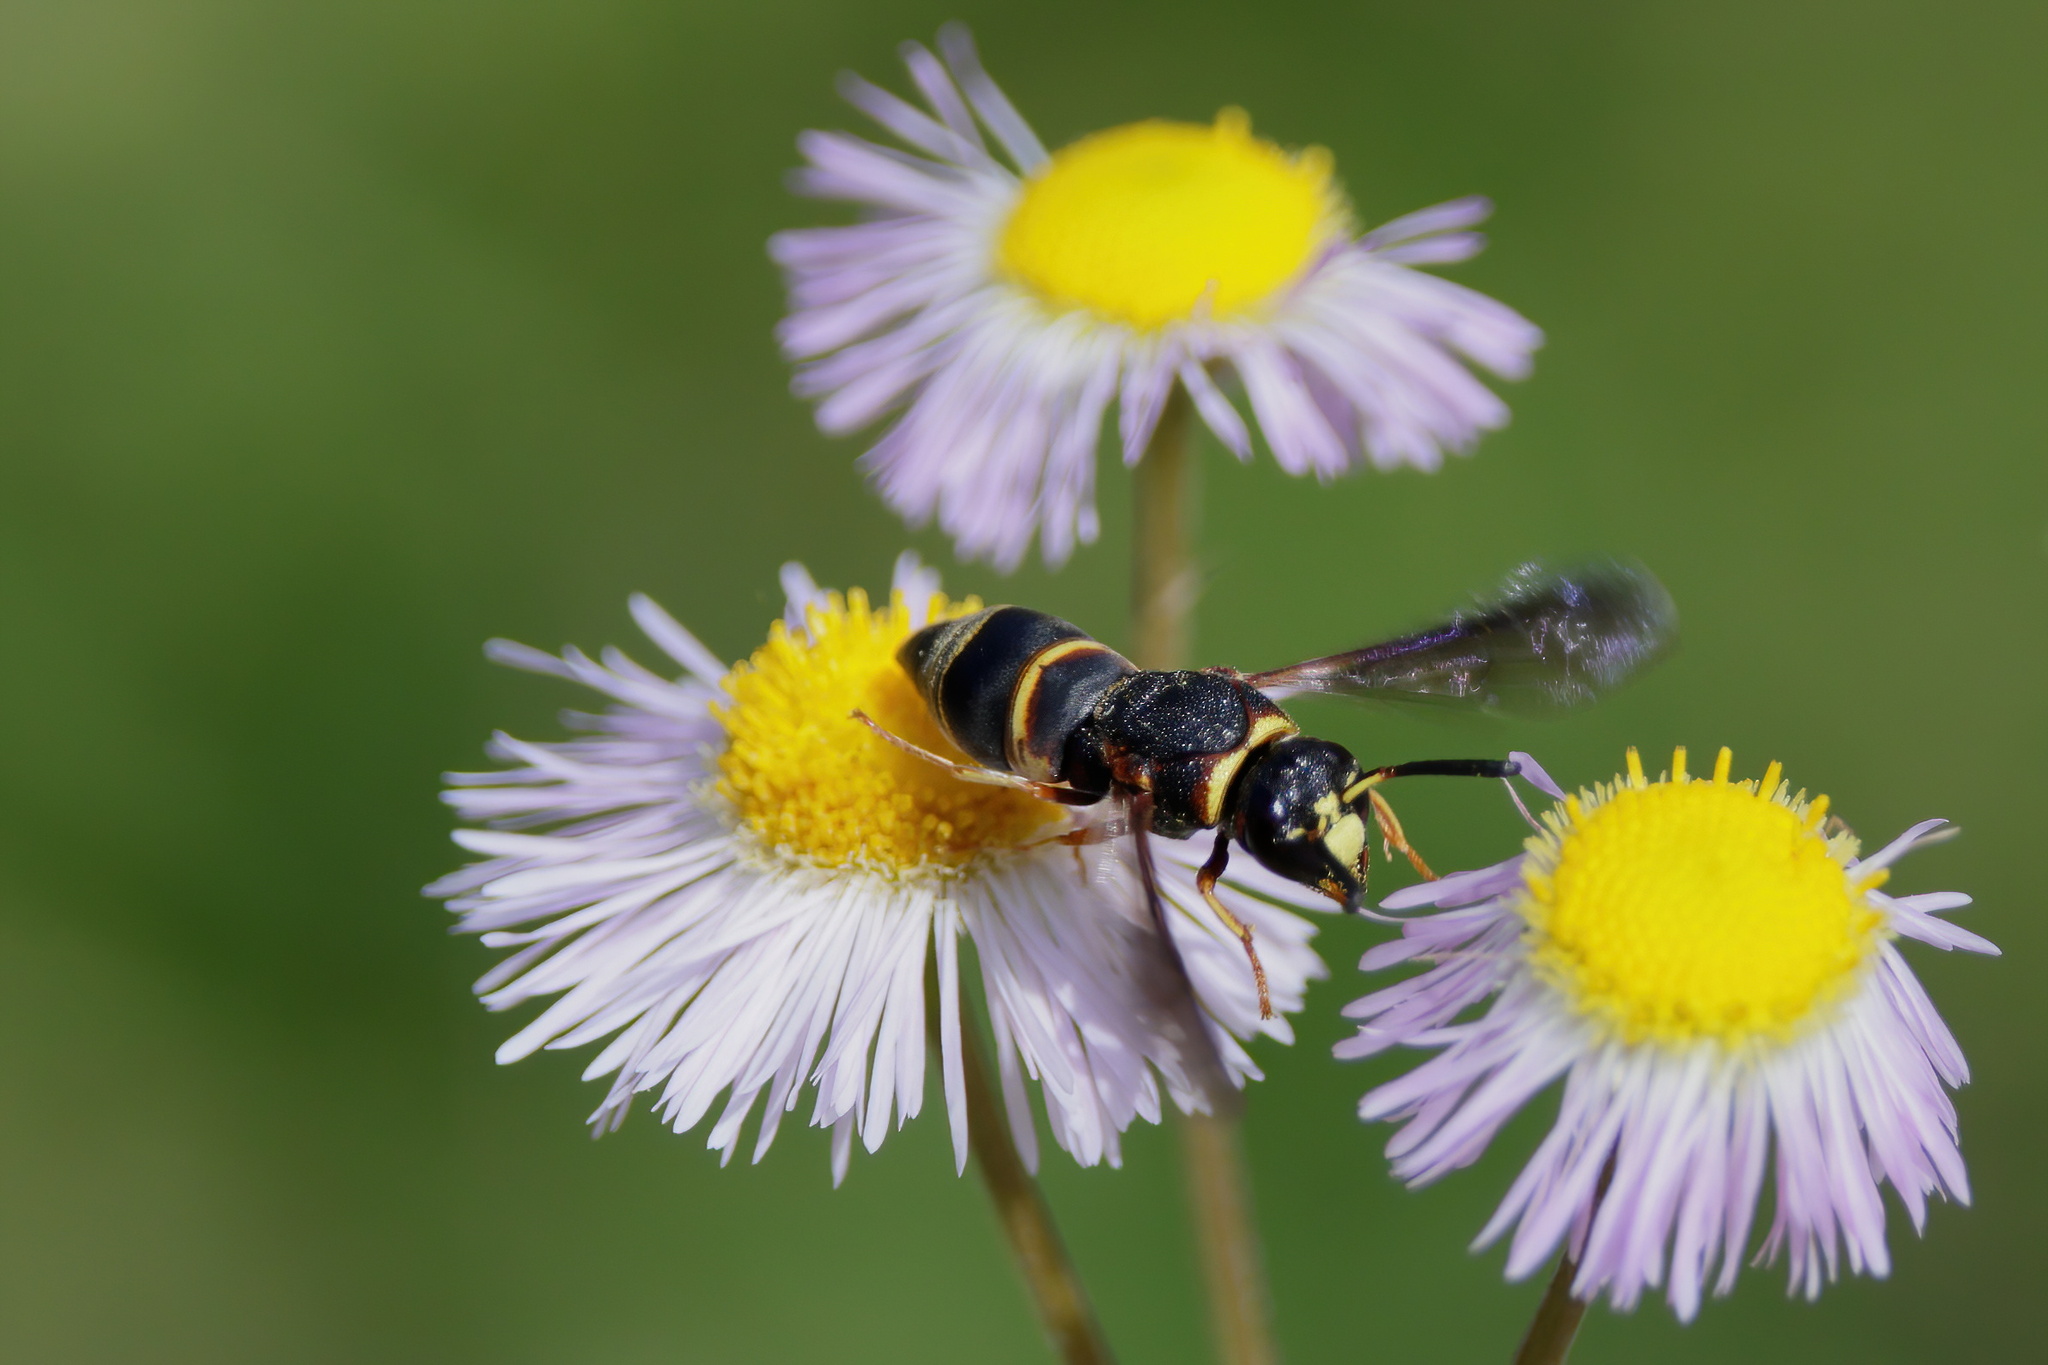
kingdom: Animalia
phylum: Arthropoda
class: Insecta
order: Hymenoptera
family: Eumenidae
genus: Euodynerus
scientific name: Euodynerus hidalgo
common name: Wasp
